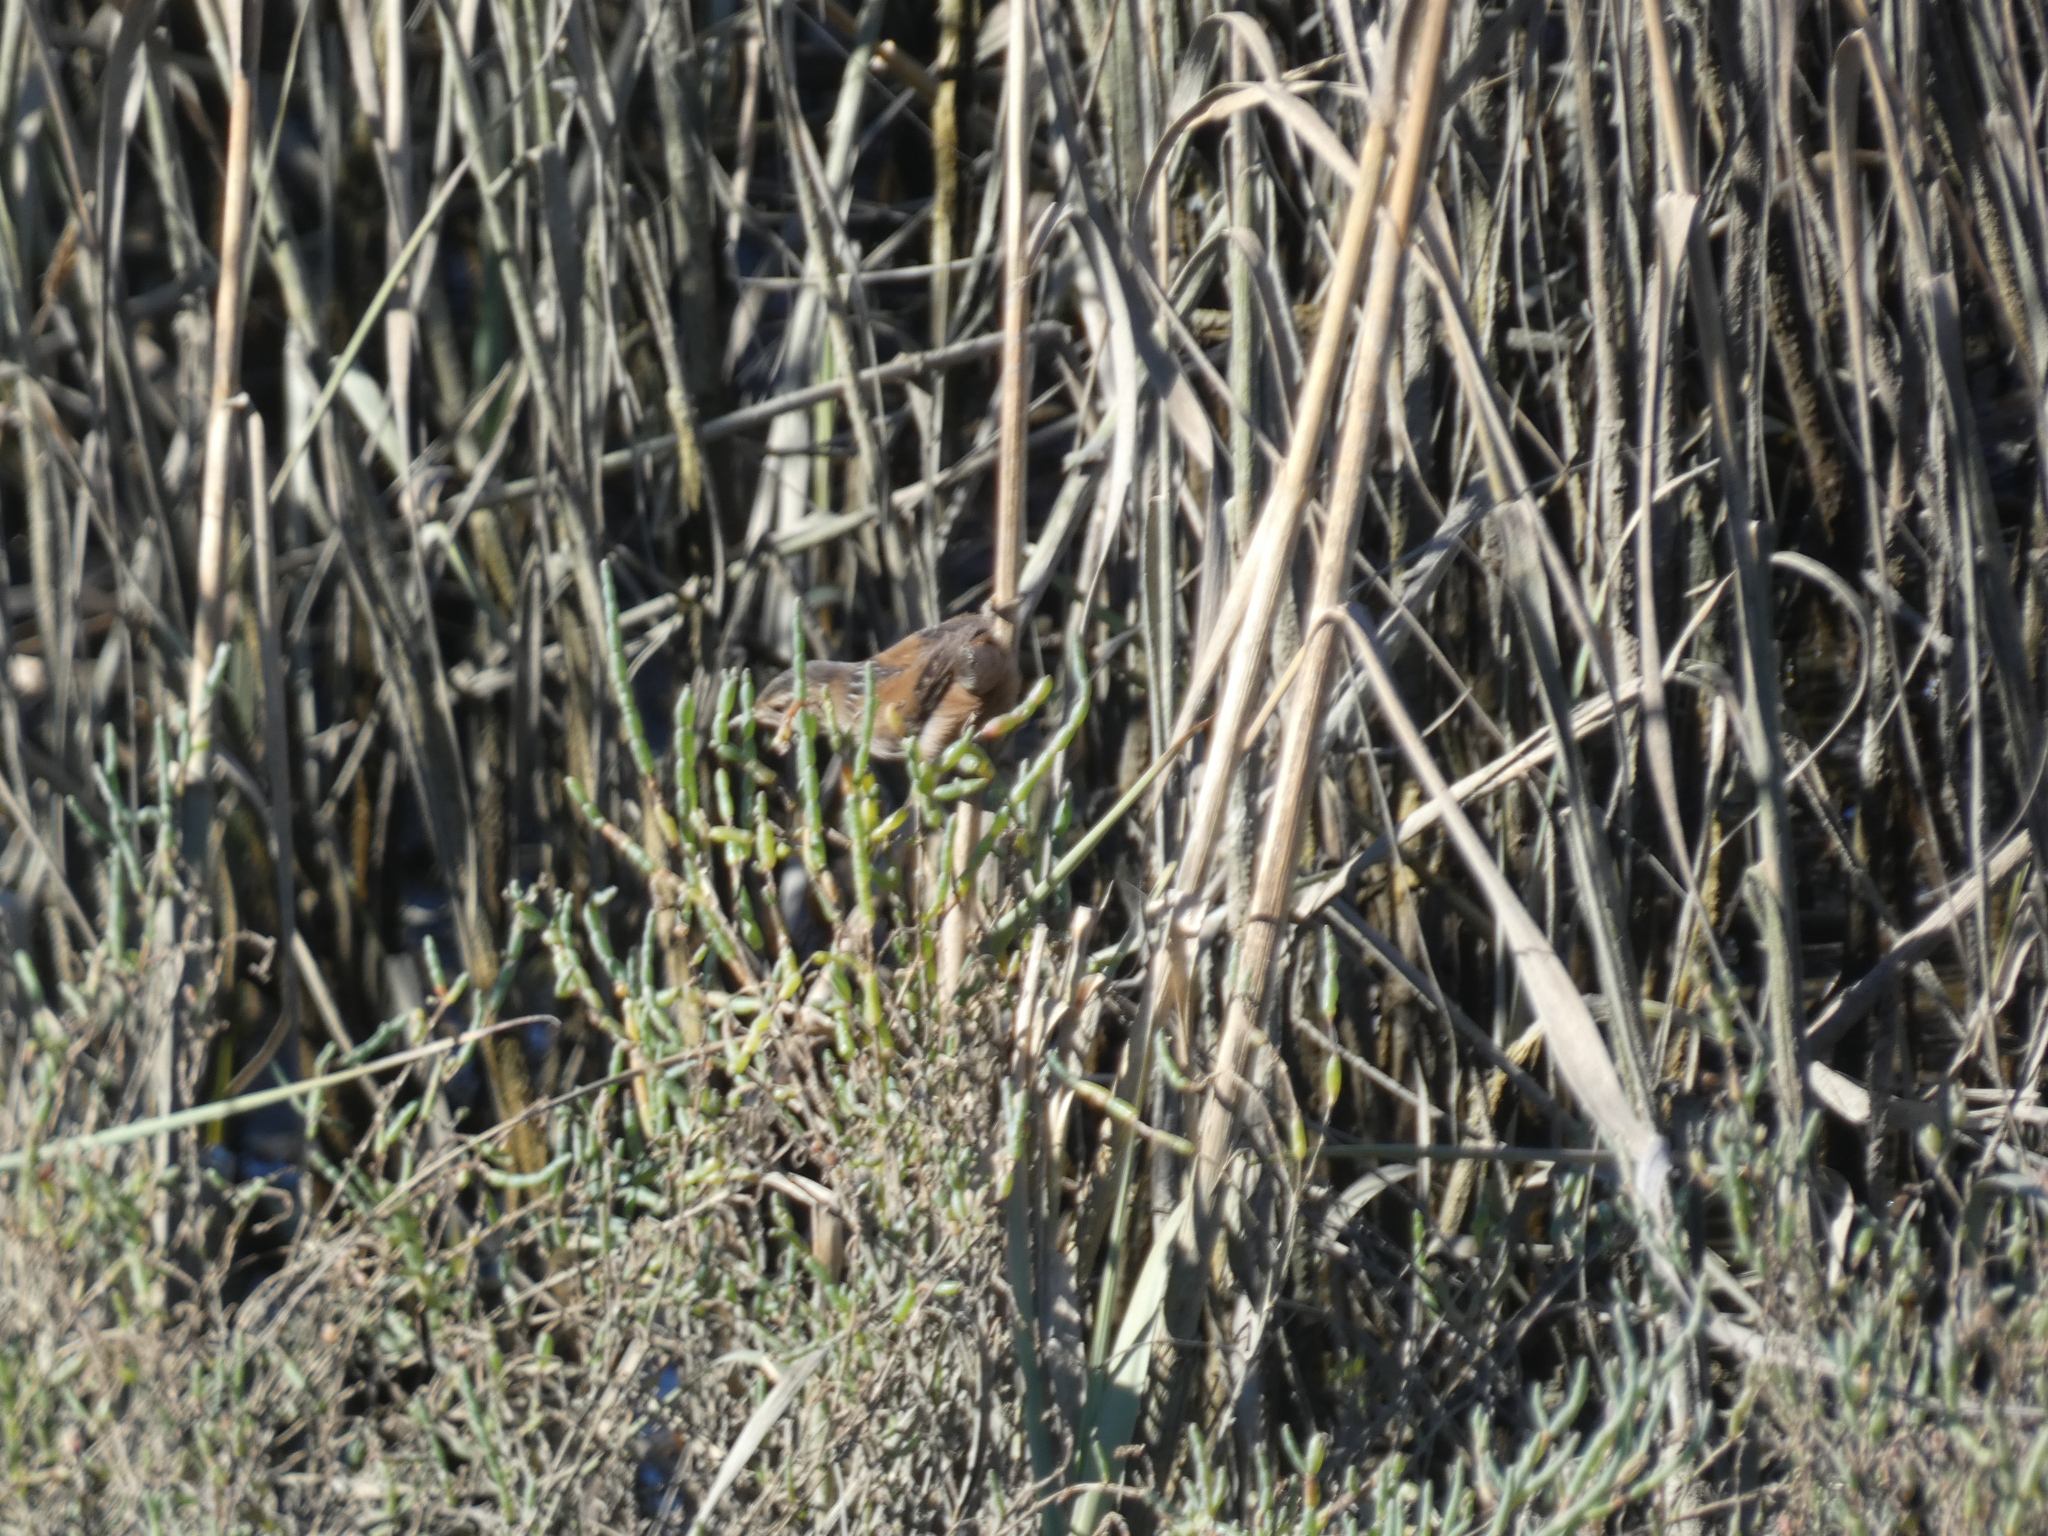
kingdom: Animalia
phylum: Chordata
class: Aves
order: Passeriformes
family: Troglodytidae
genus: Cistothorus
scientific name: Cistothorus palustris
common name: Marsh wren
